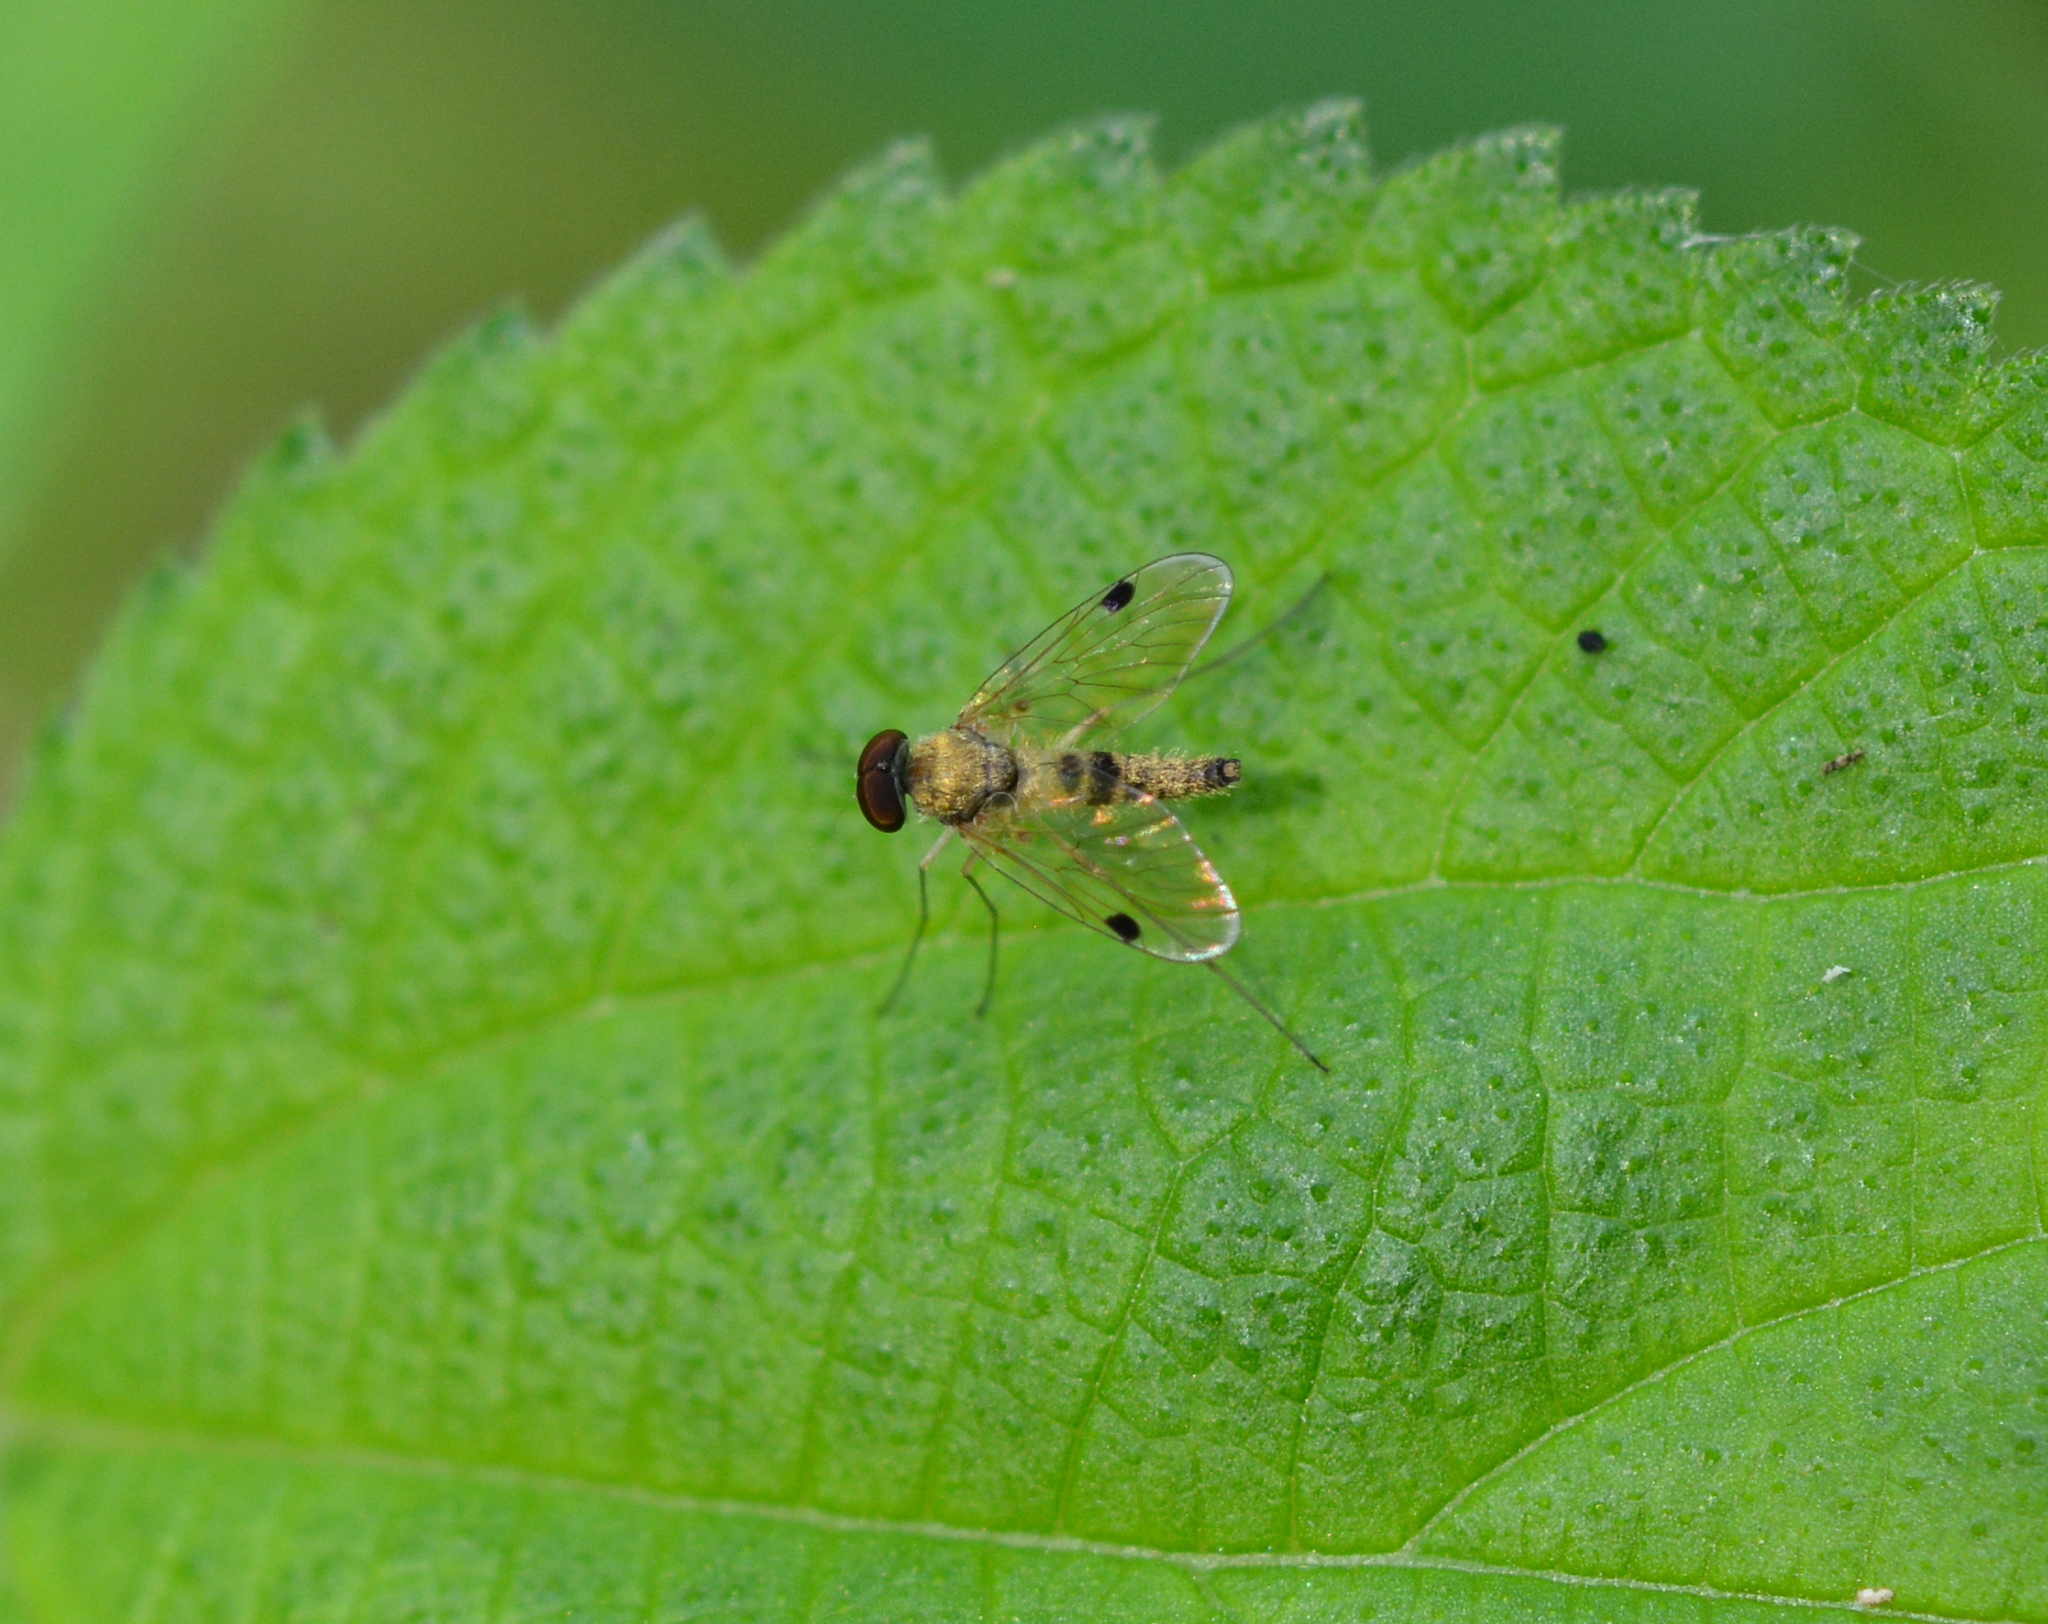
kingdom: Animalia
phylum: Arthropoda
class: Insecta
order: Diptera
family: Rhagionidae
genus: Chrysopilus
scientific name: Chrysopilus modestus
